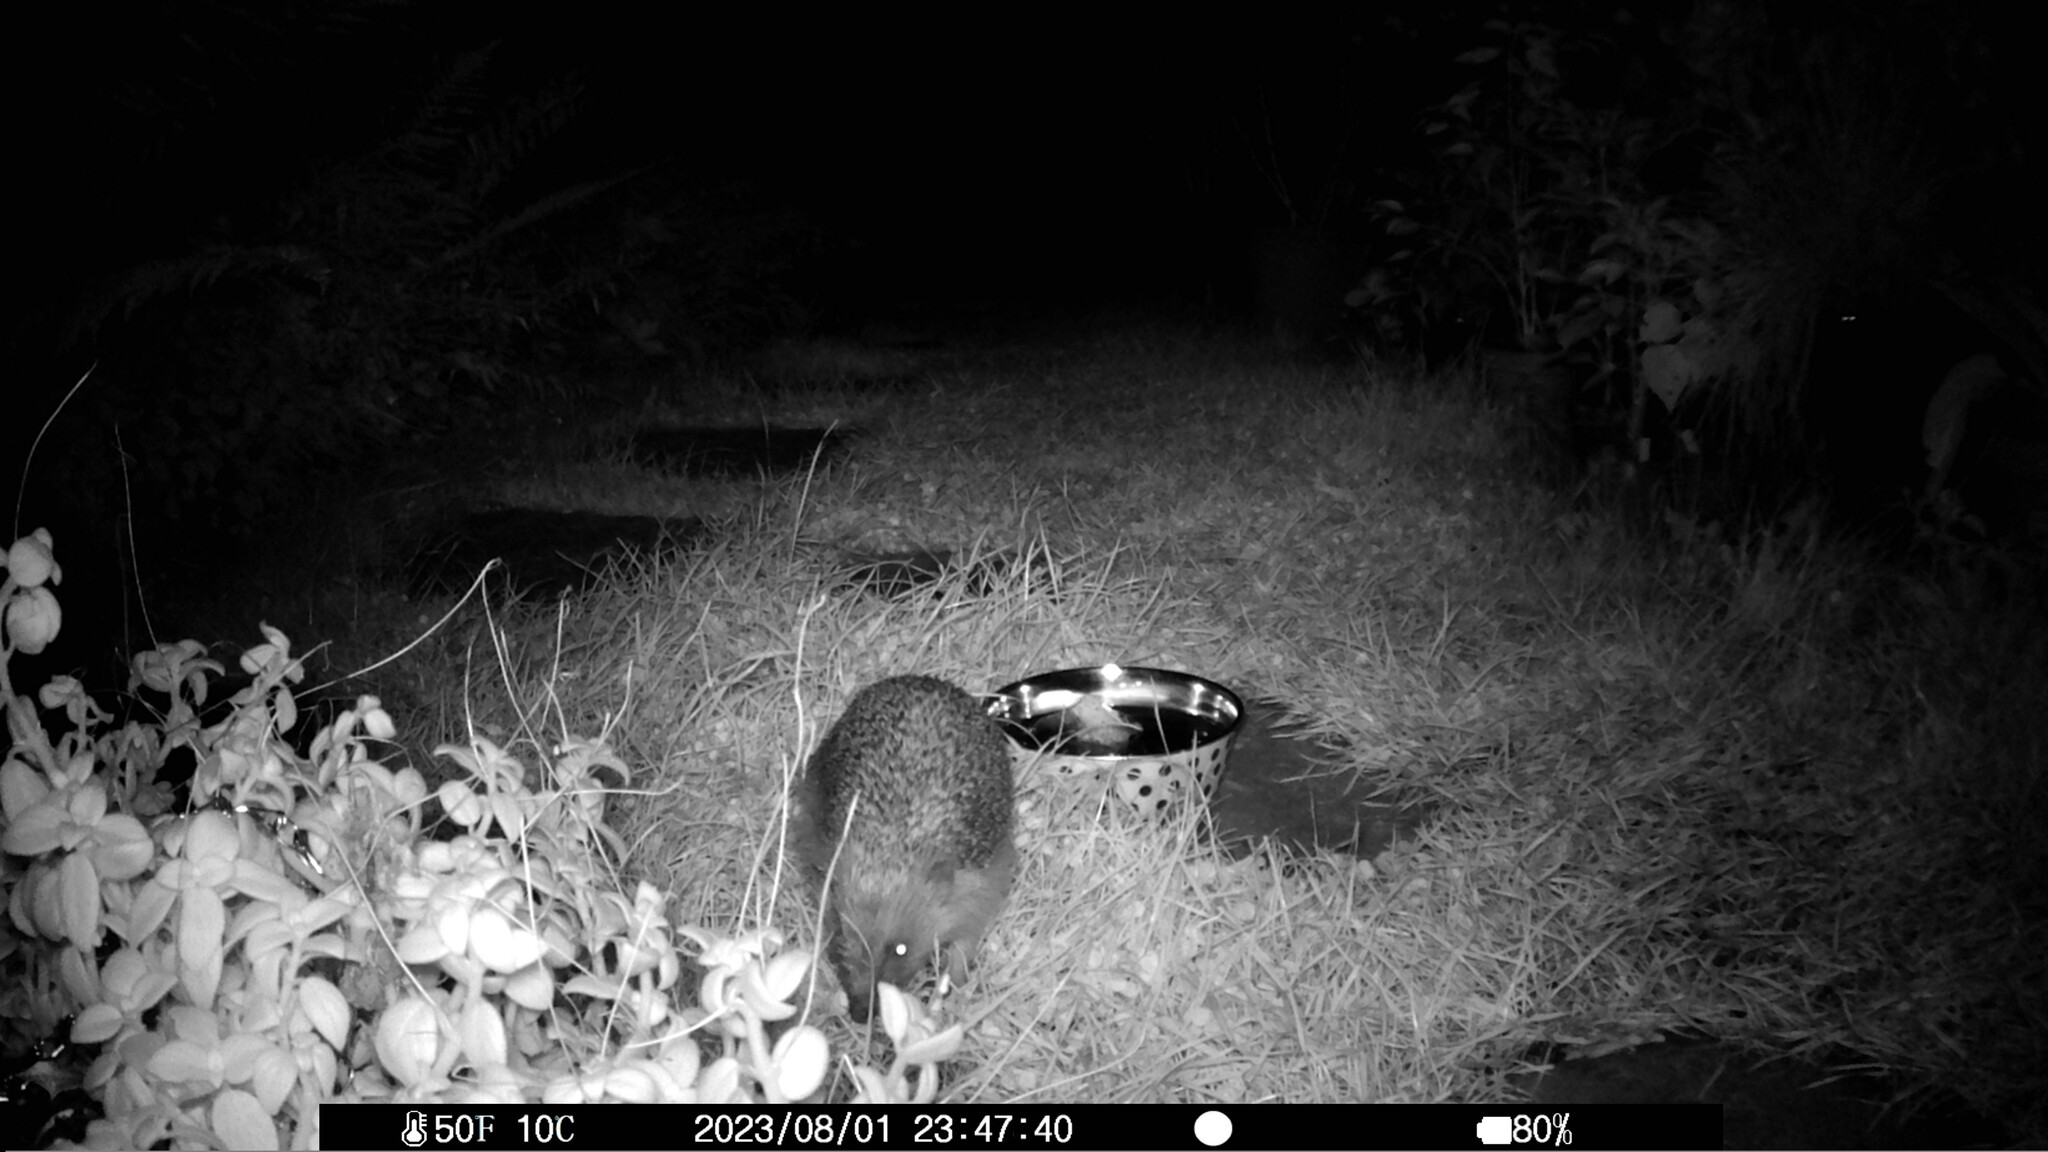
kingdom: Animalia
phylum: Chordata
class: Mammalia
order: Erinaceomorpha
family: Erinaceidae
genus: Erinaceus
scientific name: Erinaceus europaeus
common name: West european hedgehog
